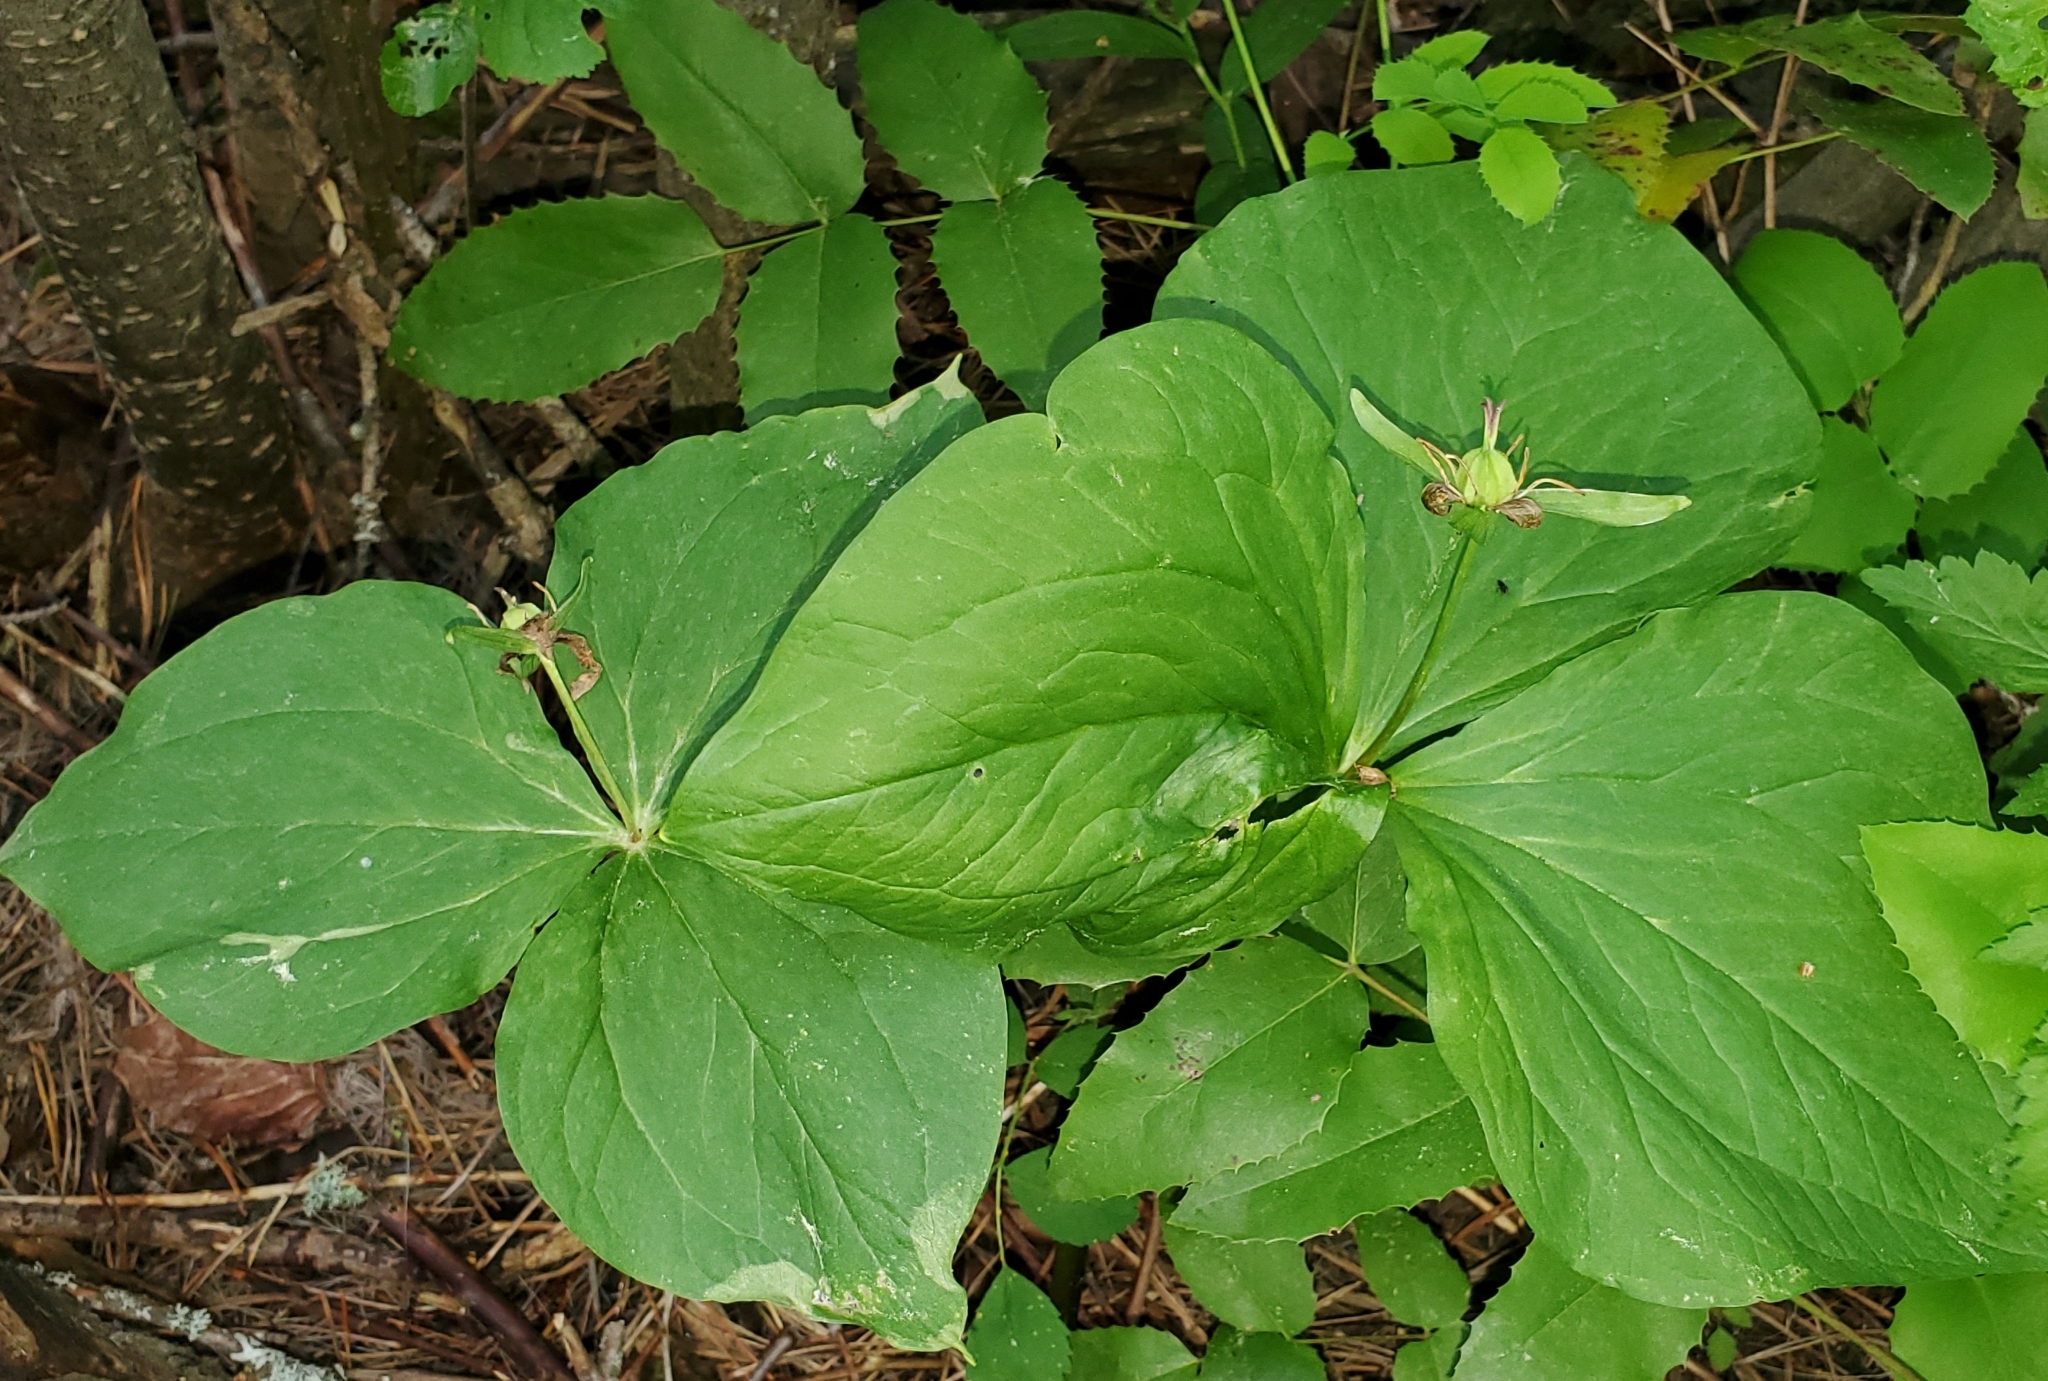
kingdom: Plantae
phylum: Tracheophyta
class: Liliopsida
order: Liliales
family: Melanthiaceae
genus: Trillium
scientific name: Trillium ovatum
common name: Pacific trillium
